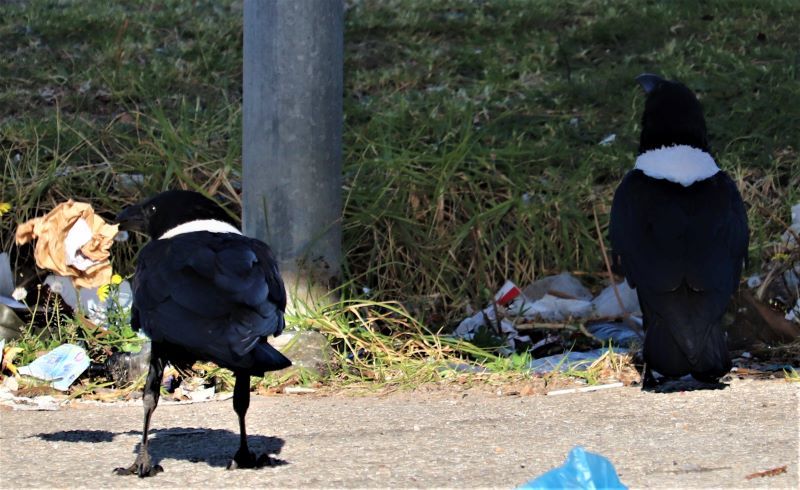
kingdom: Animalia
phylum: Chordata
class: Aves
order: Passeriformes
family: Corvidae
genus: Corvus
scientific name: Corvus albus
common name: Pied crow
